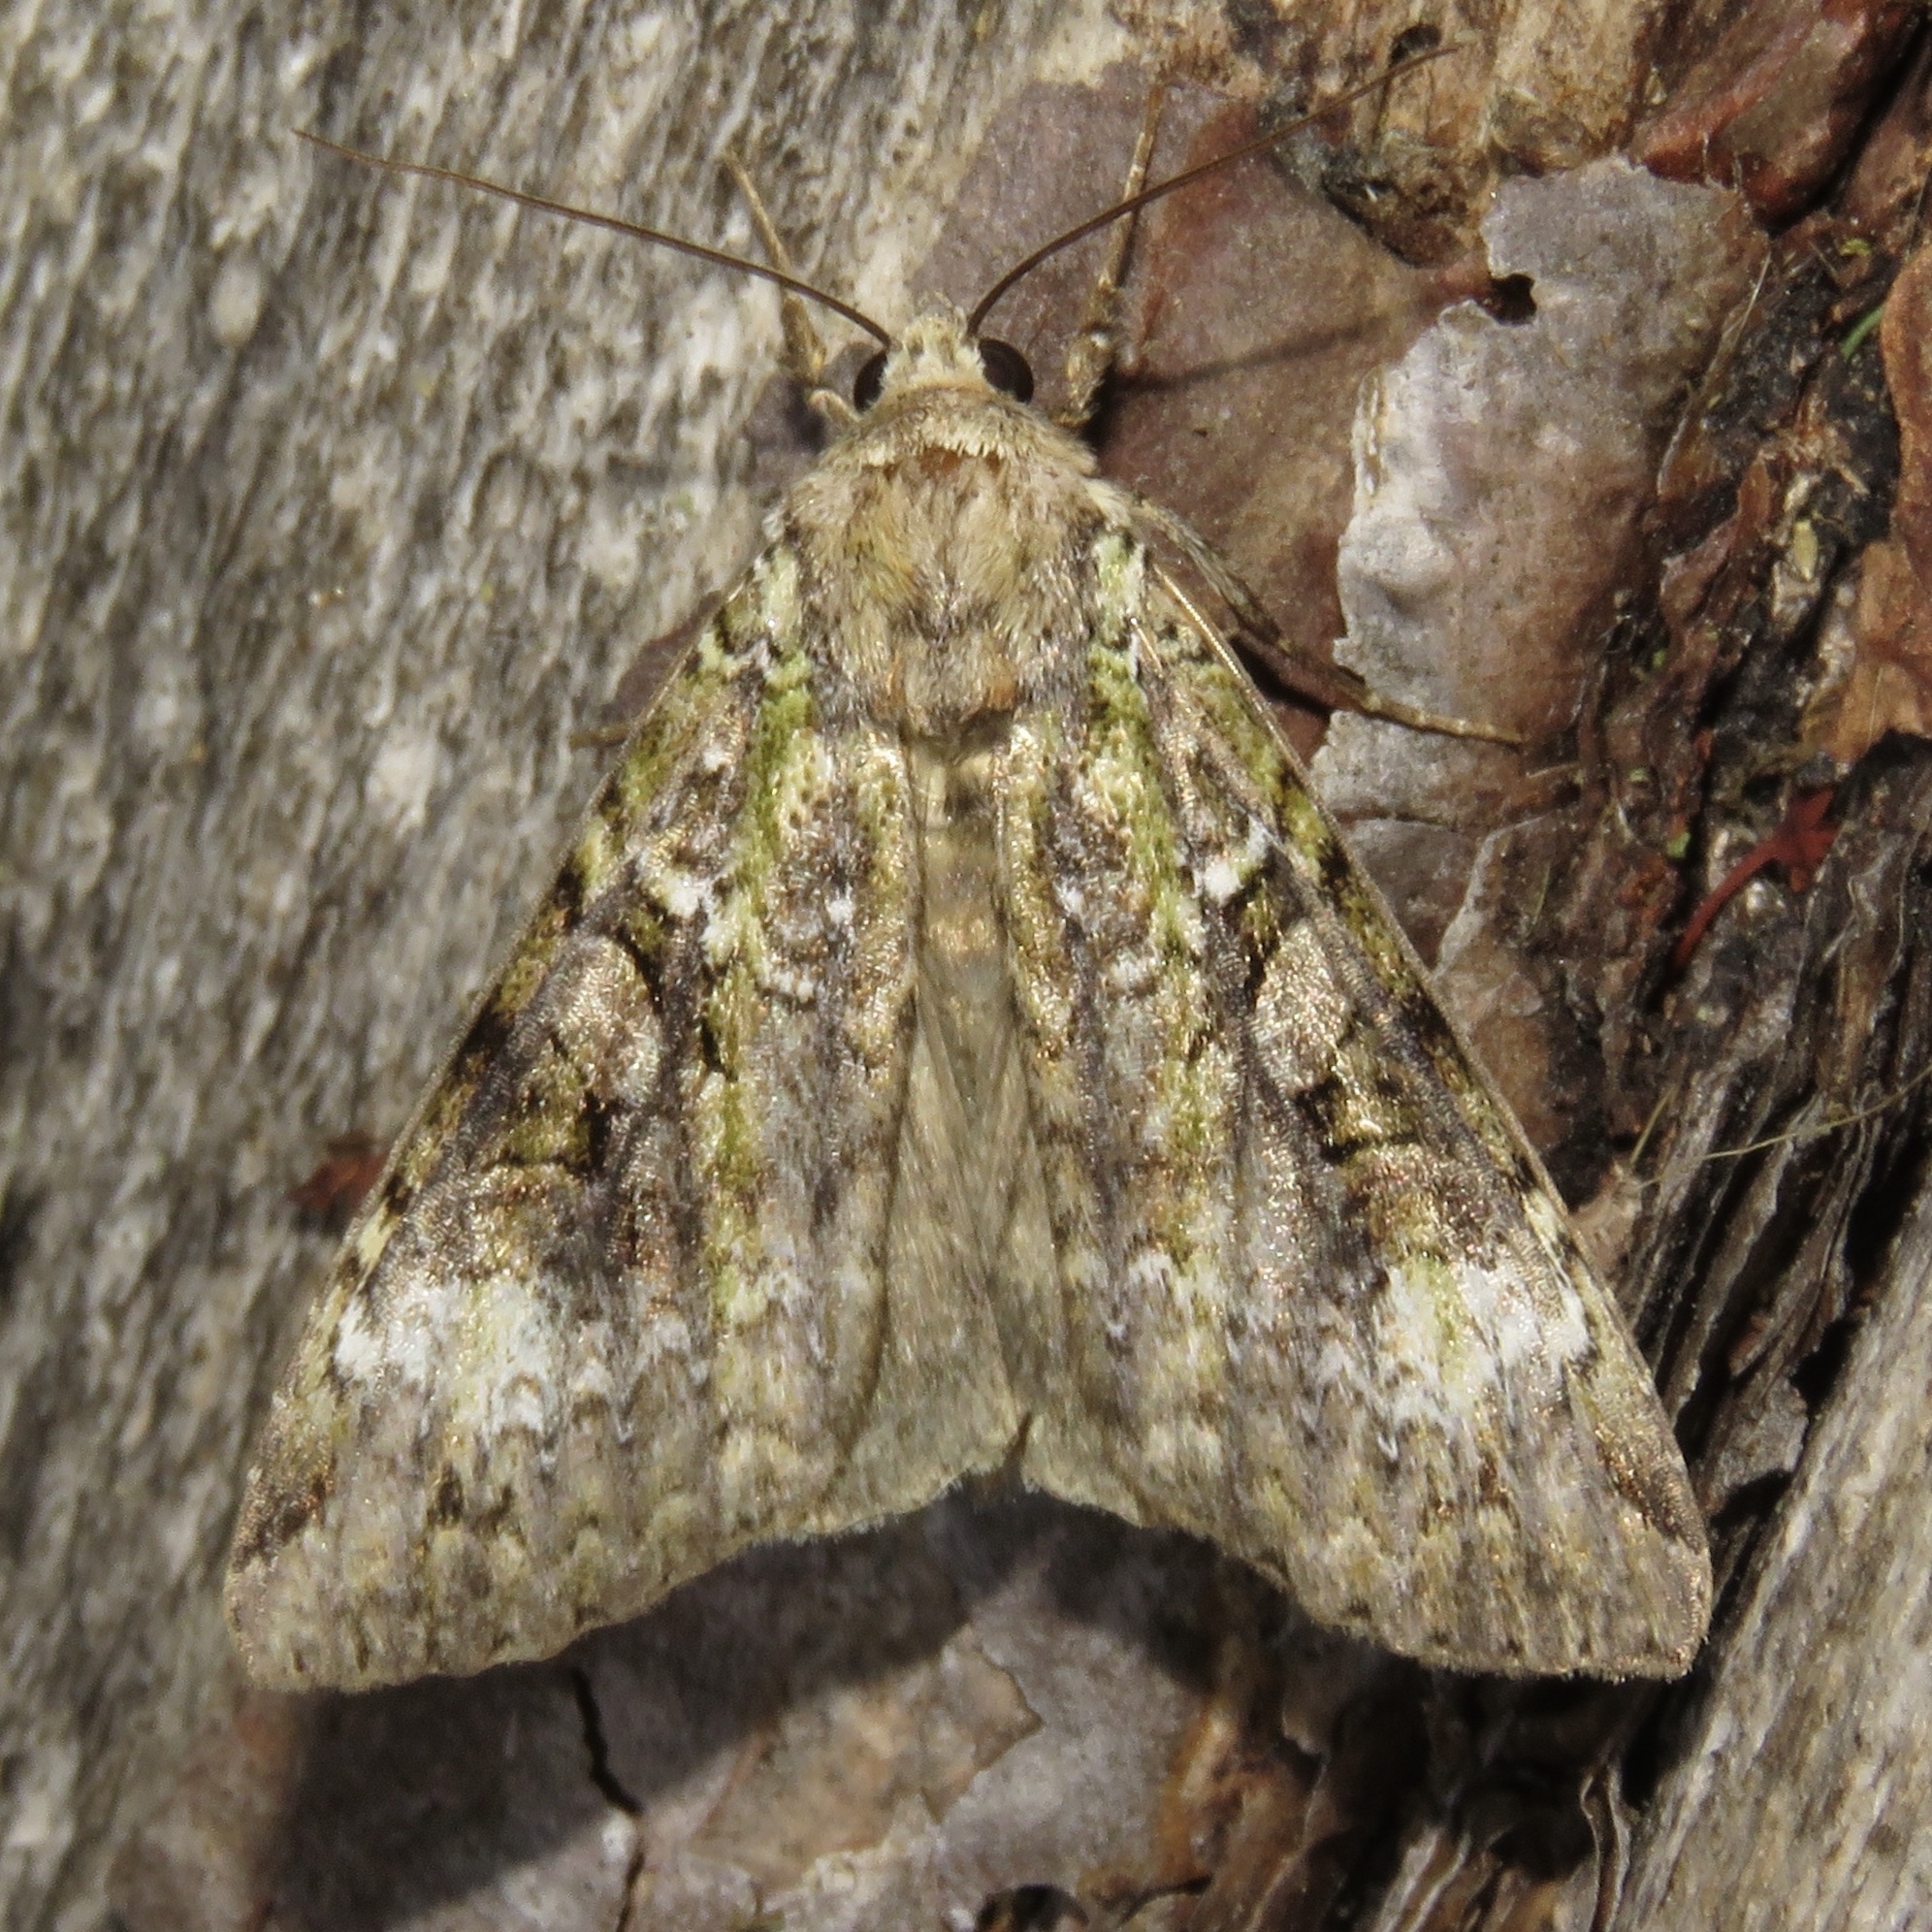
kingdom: Animalia
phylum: Arthropoda
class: Insecta
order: Lepidoptera
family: Noctuidae
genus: Anaplectoides
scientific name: Anaplectoides prasina
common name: Green arches
